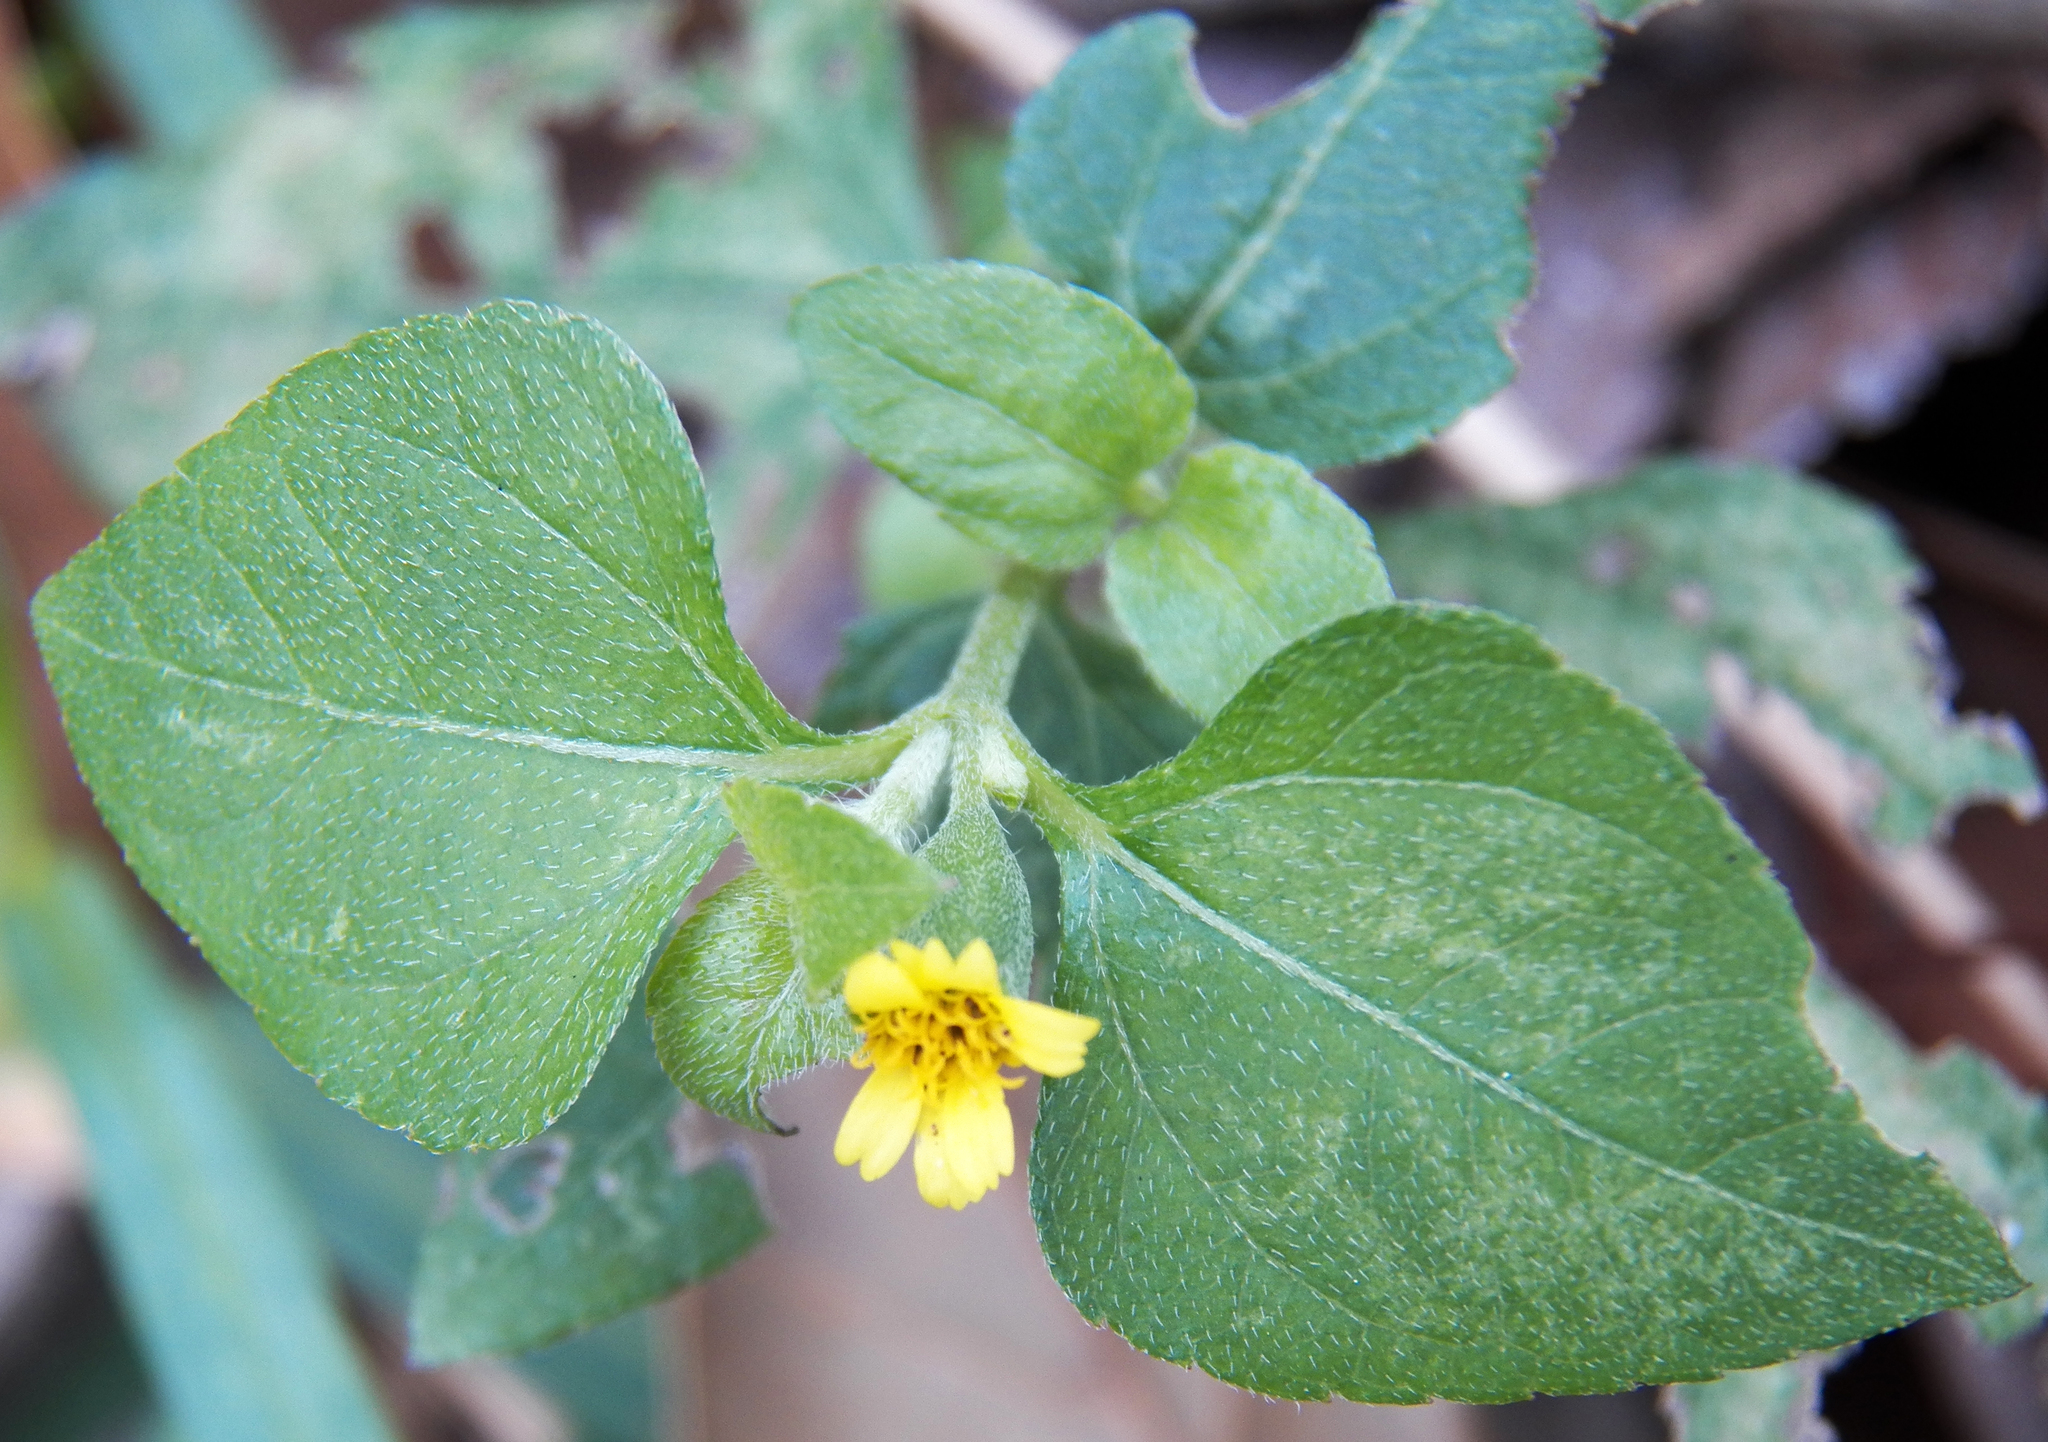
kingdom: Plantae
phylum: Tracheophyta
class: Magnoliopsida
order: Asterales
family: Asteraceae
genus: Calyptocarpus
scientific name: Calyptocarpus vialis
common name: Straggler daisy
